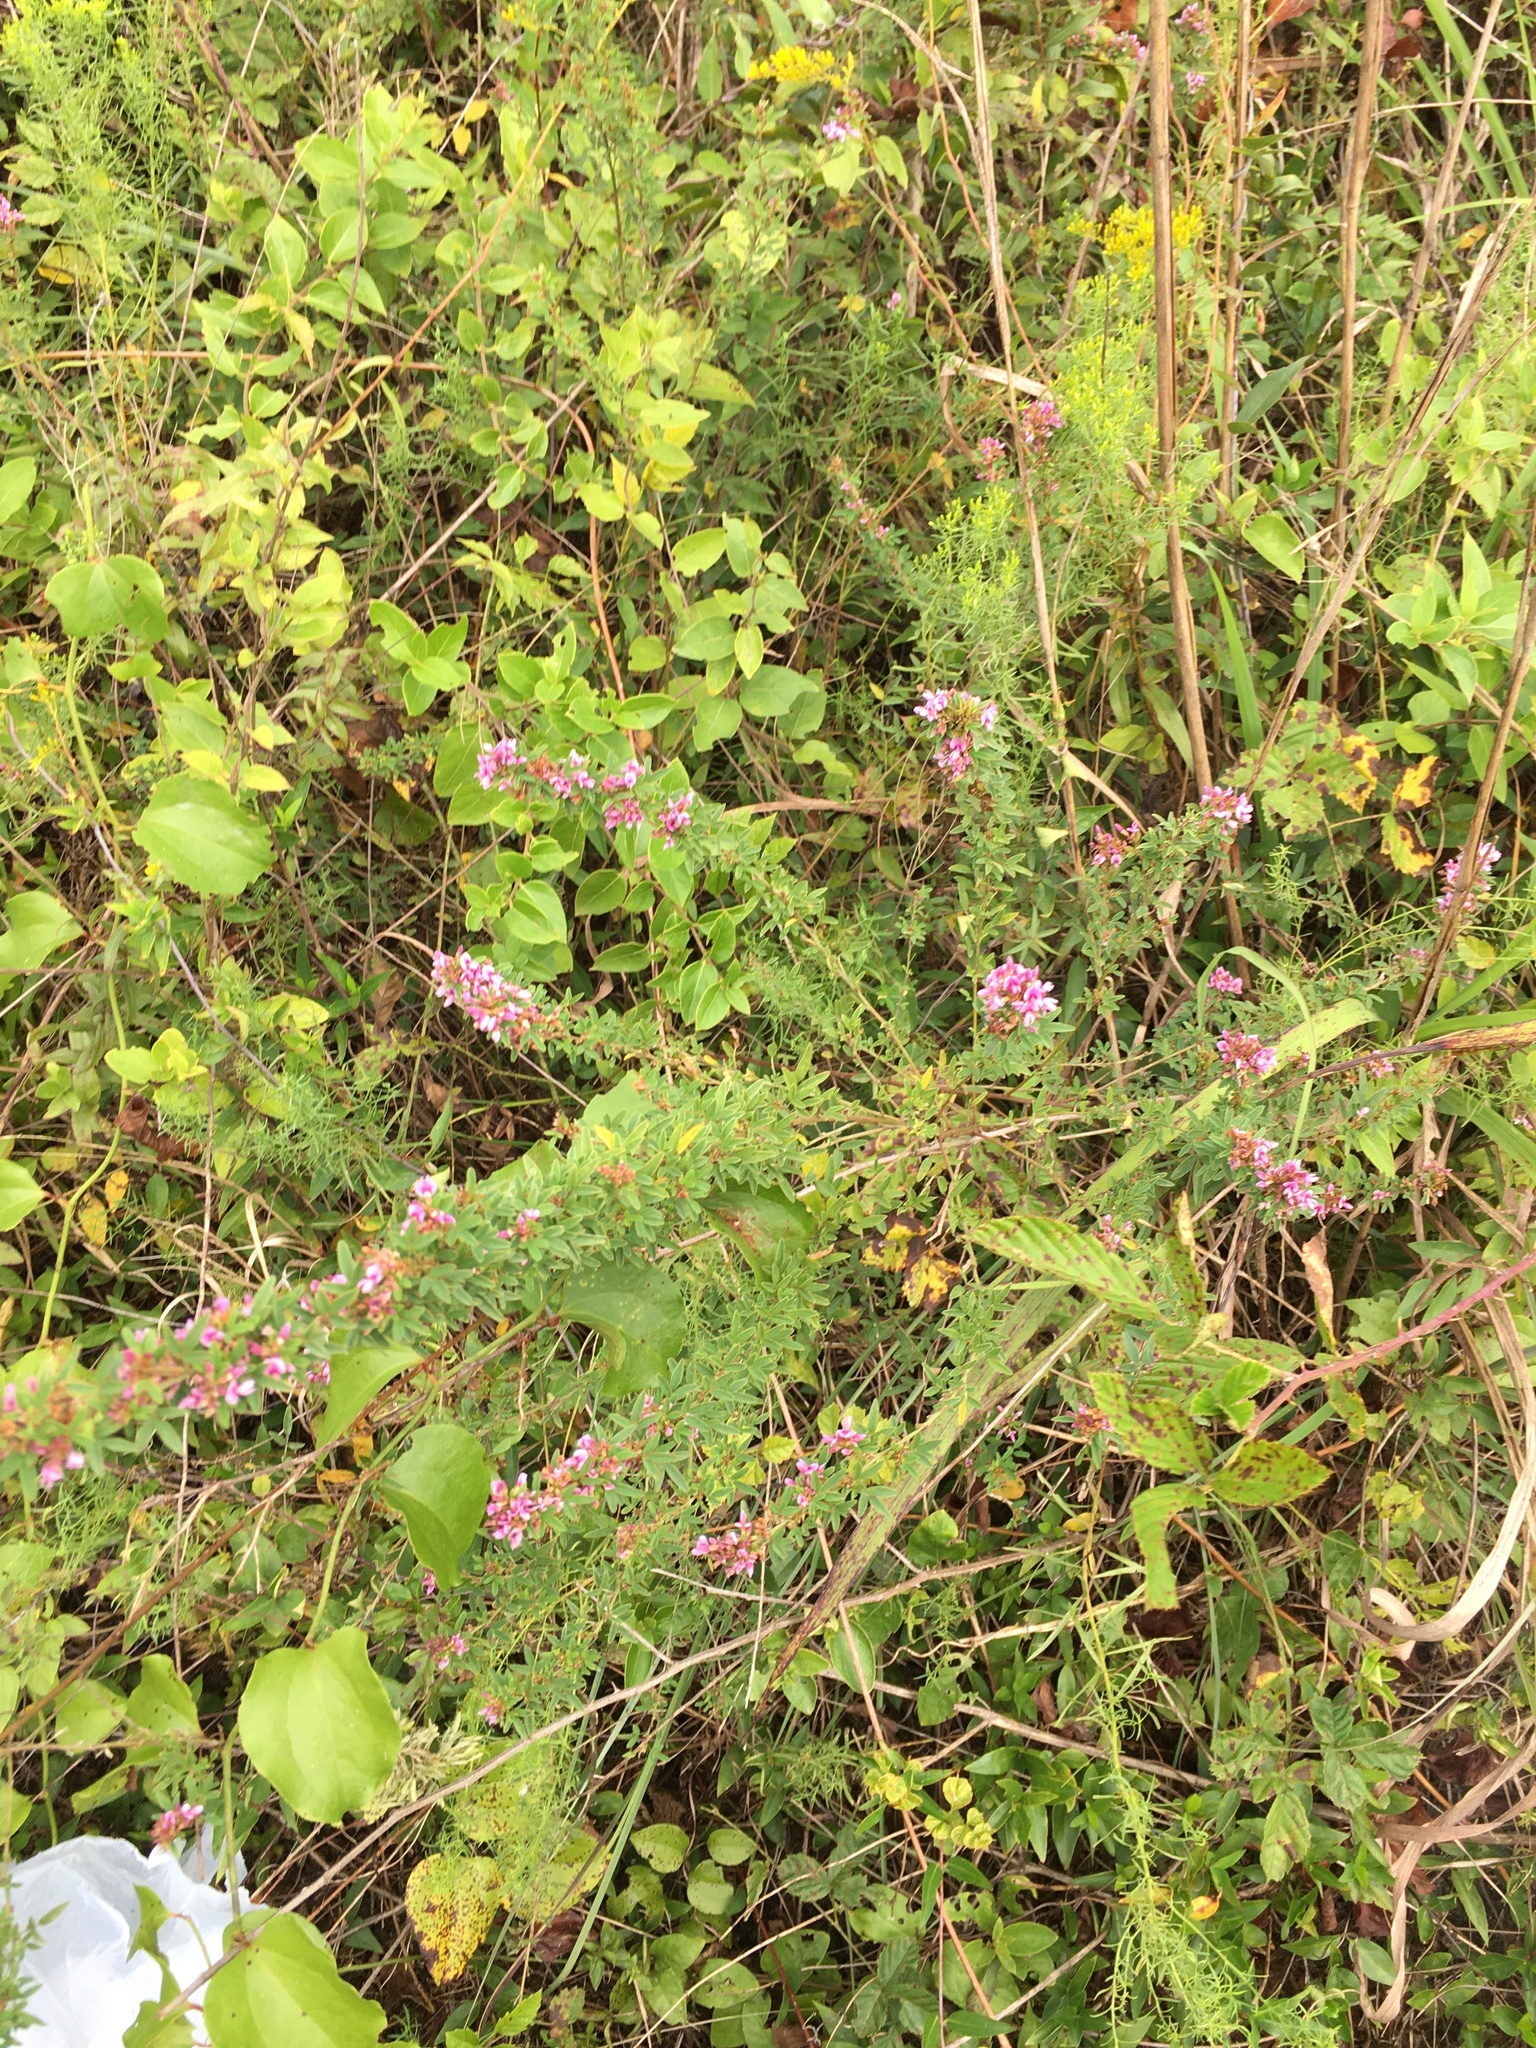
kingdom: Plantae
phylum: Tracheophyta
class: Magnoliopsida
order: Fabales
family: Fabaceae
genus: Lespedeza
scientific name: Lespedeza virginica
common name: Slender bush-clover
